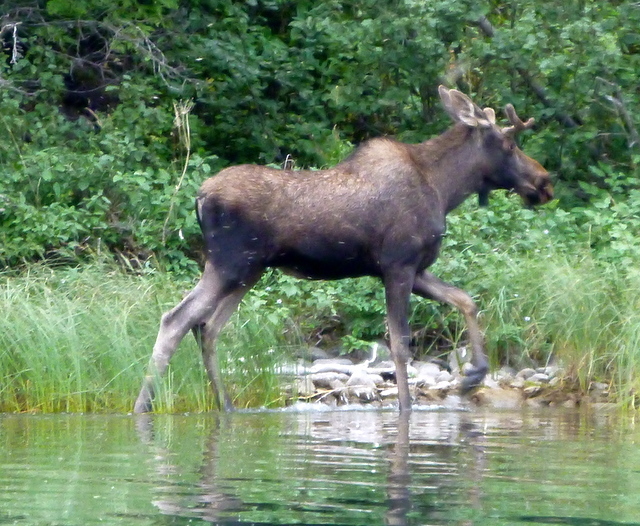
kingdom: Animalia
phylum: Chordata
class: Mammalia
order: Artiodactyla
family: Cervidae
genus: Alces
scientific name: Alces alces
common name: Moose
